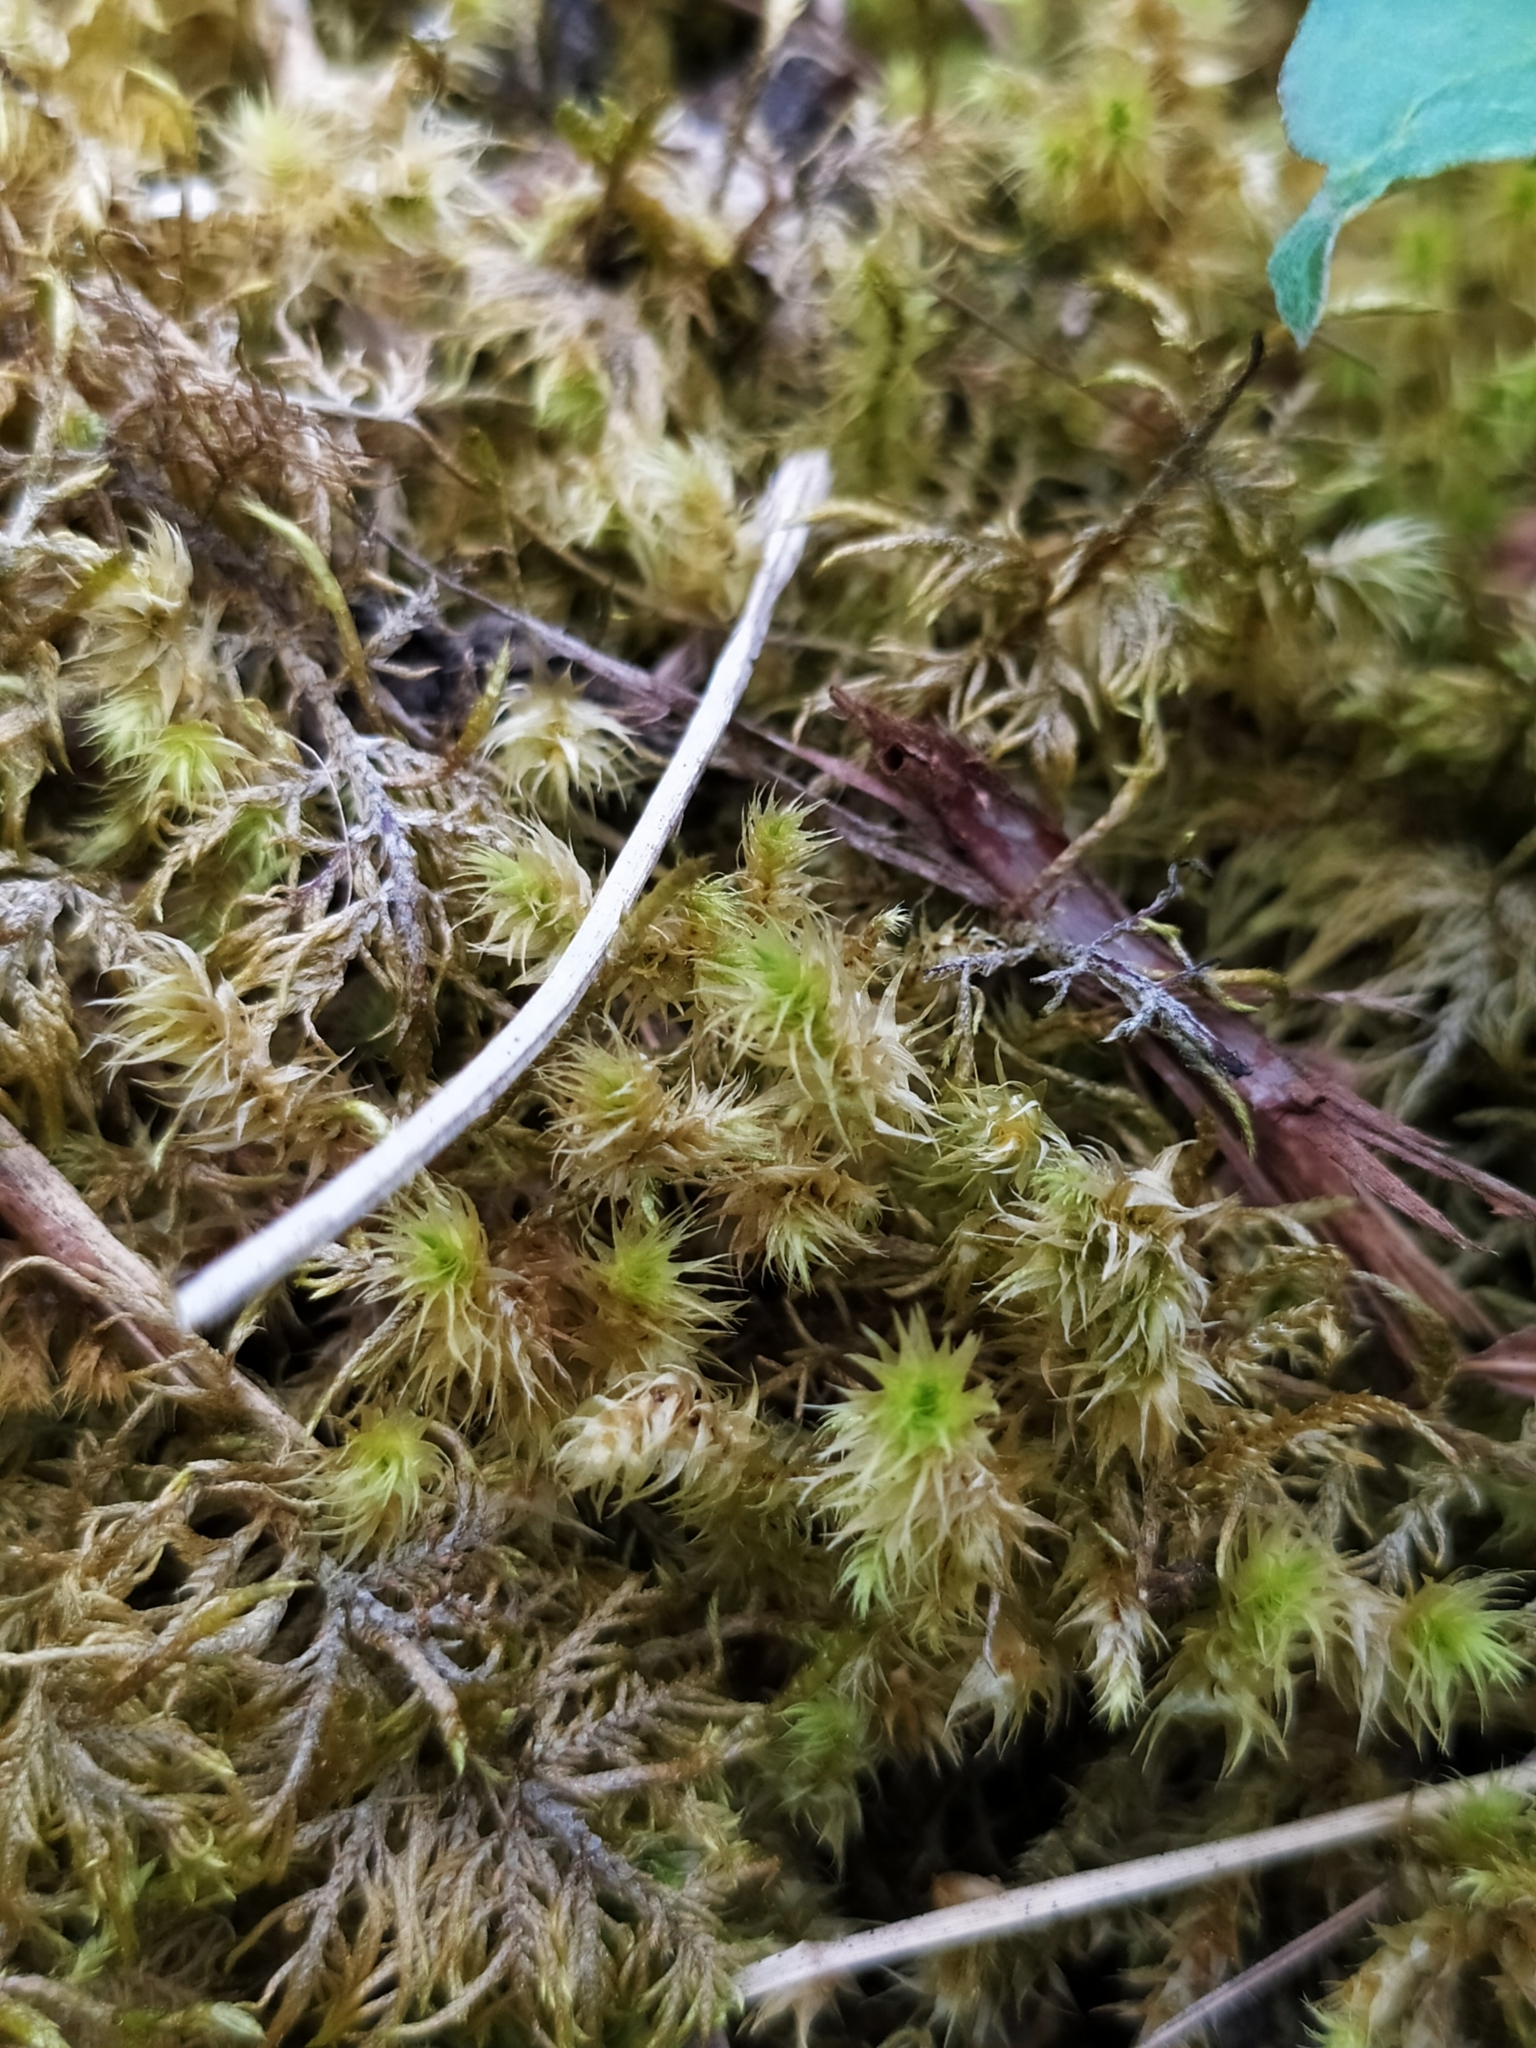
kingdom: Plantae
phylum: Bryophyta
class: Bryopsida
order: Hypnales
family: Hylocomiaceae
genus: Hylocomiadelphus
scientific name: Hylocomiadelphus triquetrus
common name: Rough goose neck moss
